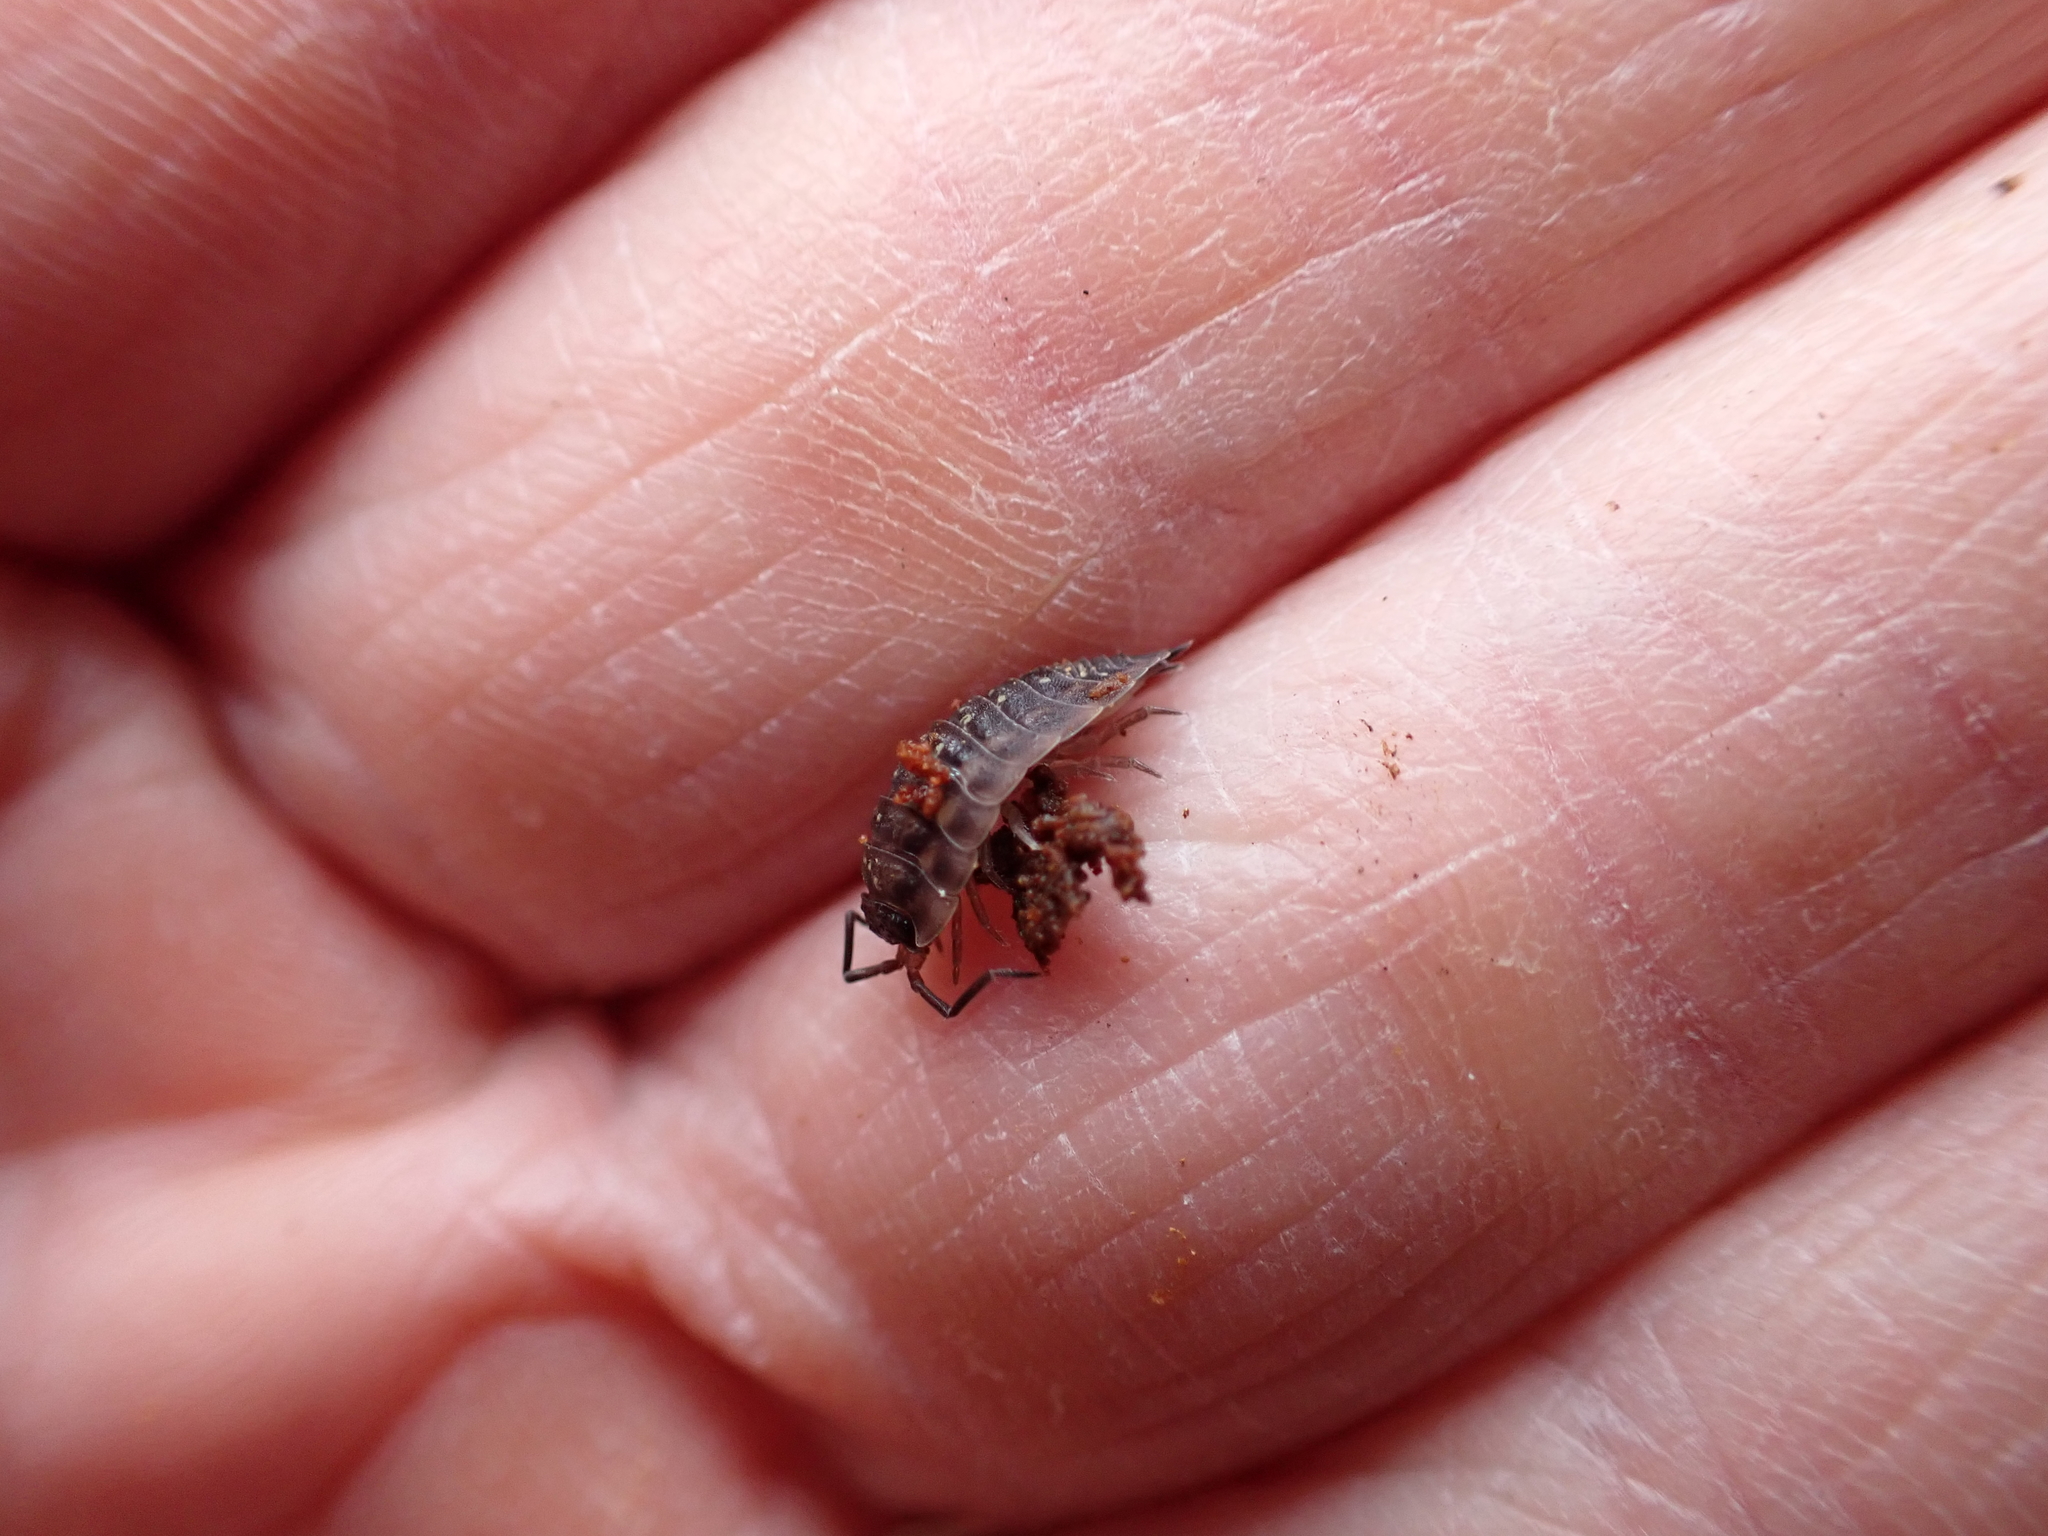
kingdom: Animalia
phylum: Arthropoda
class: Malacostraca
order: Isopoda
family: Oniscidae
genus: Oniscus
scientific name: Oniscus asellus
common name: Common shiny woodlouse
